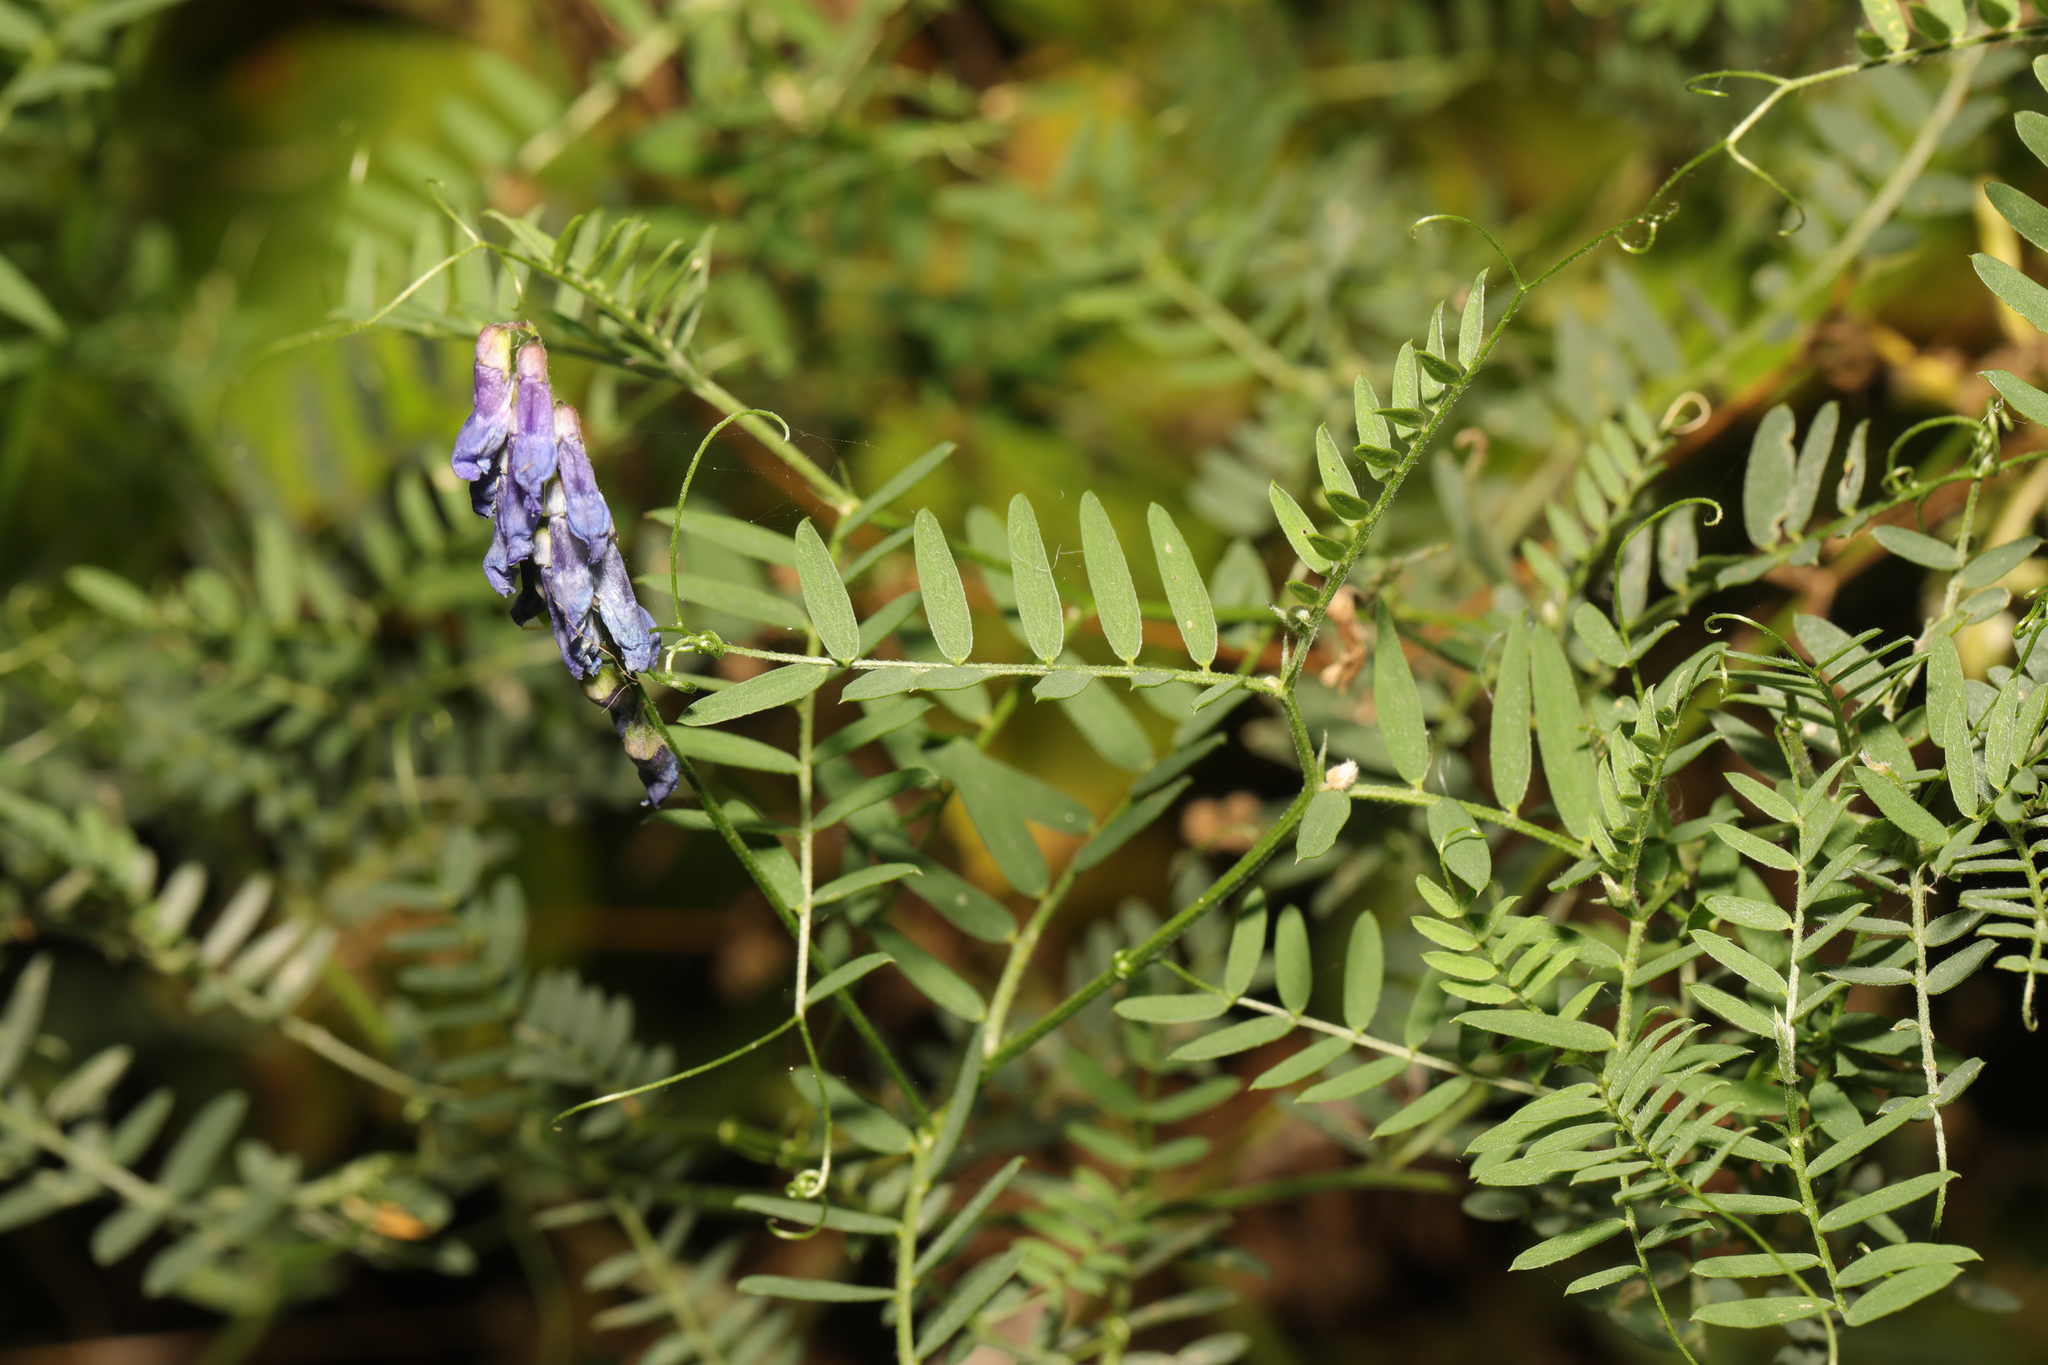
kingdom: Plantae
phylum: Tracheophyta
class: Magnoliopsida
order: Fabales
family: Fabaceae
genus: Vicia
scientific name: Vicia cracca
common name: Bird vetch
